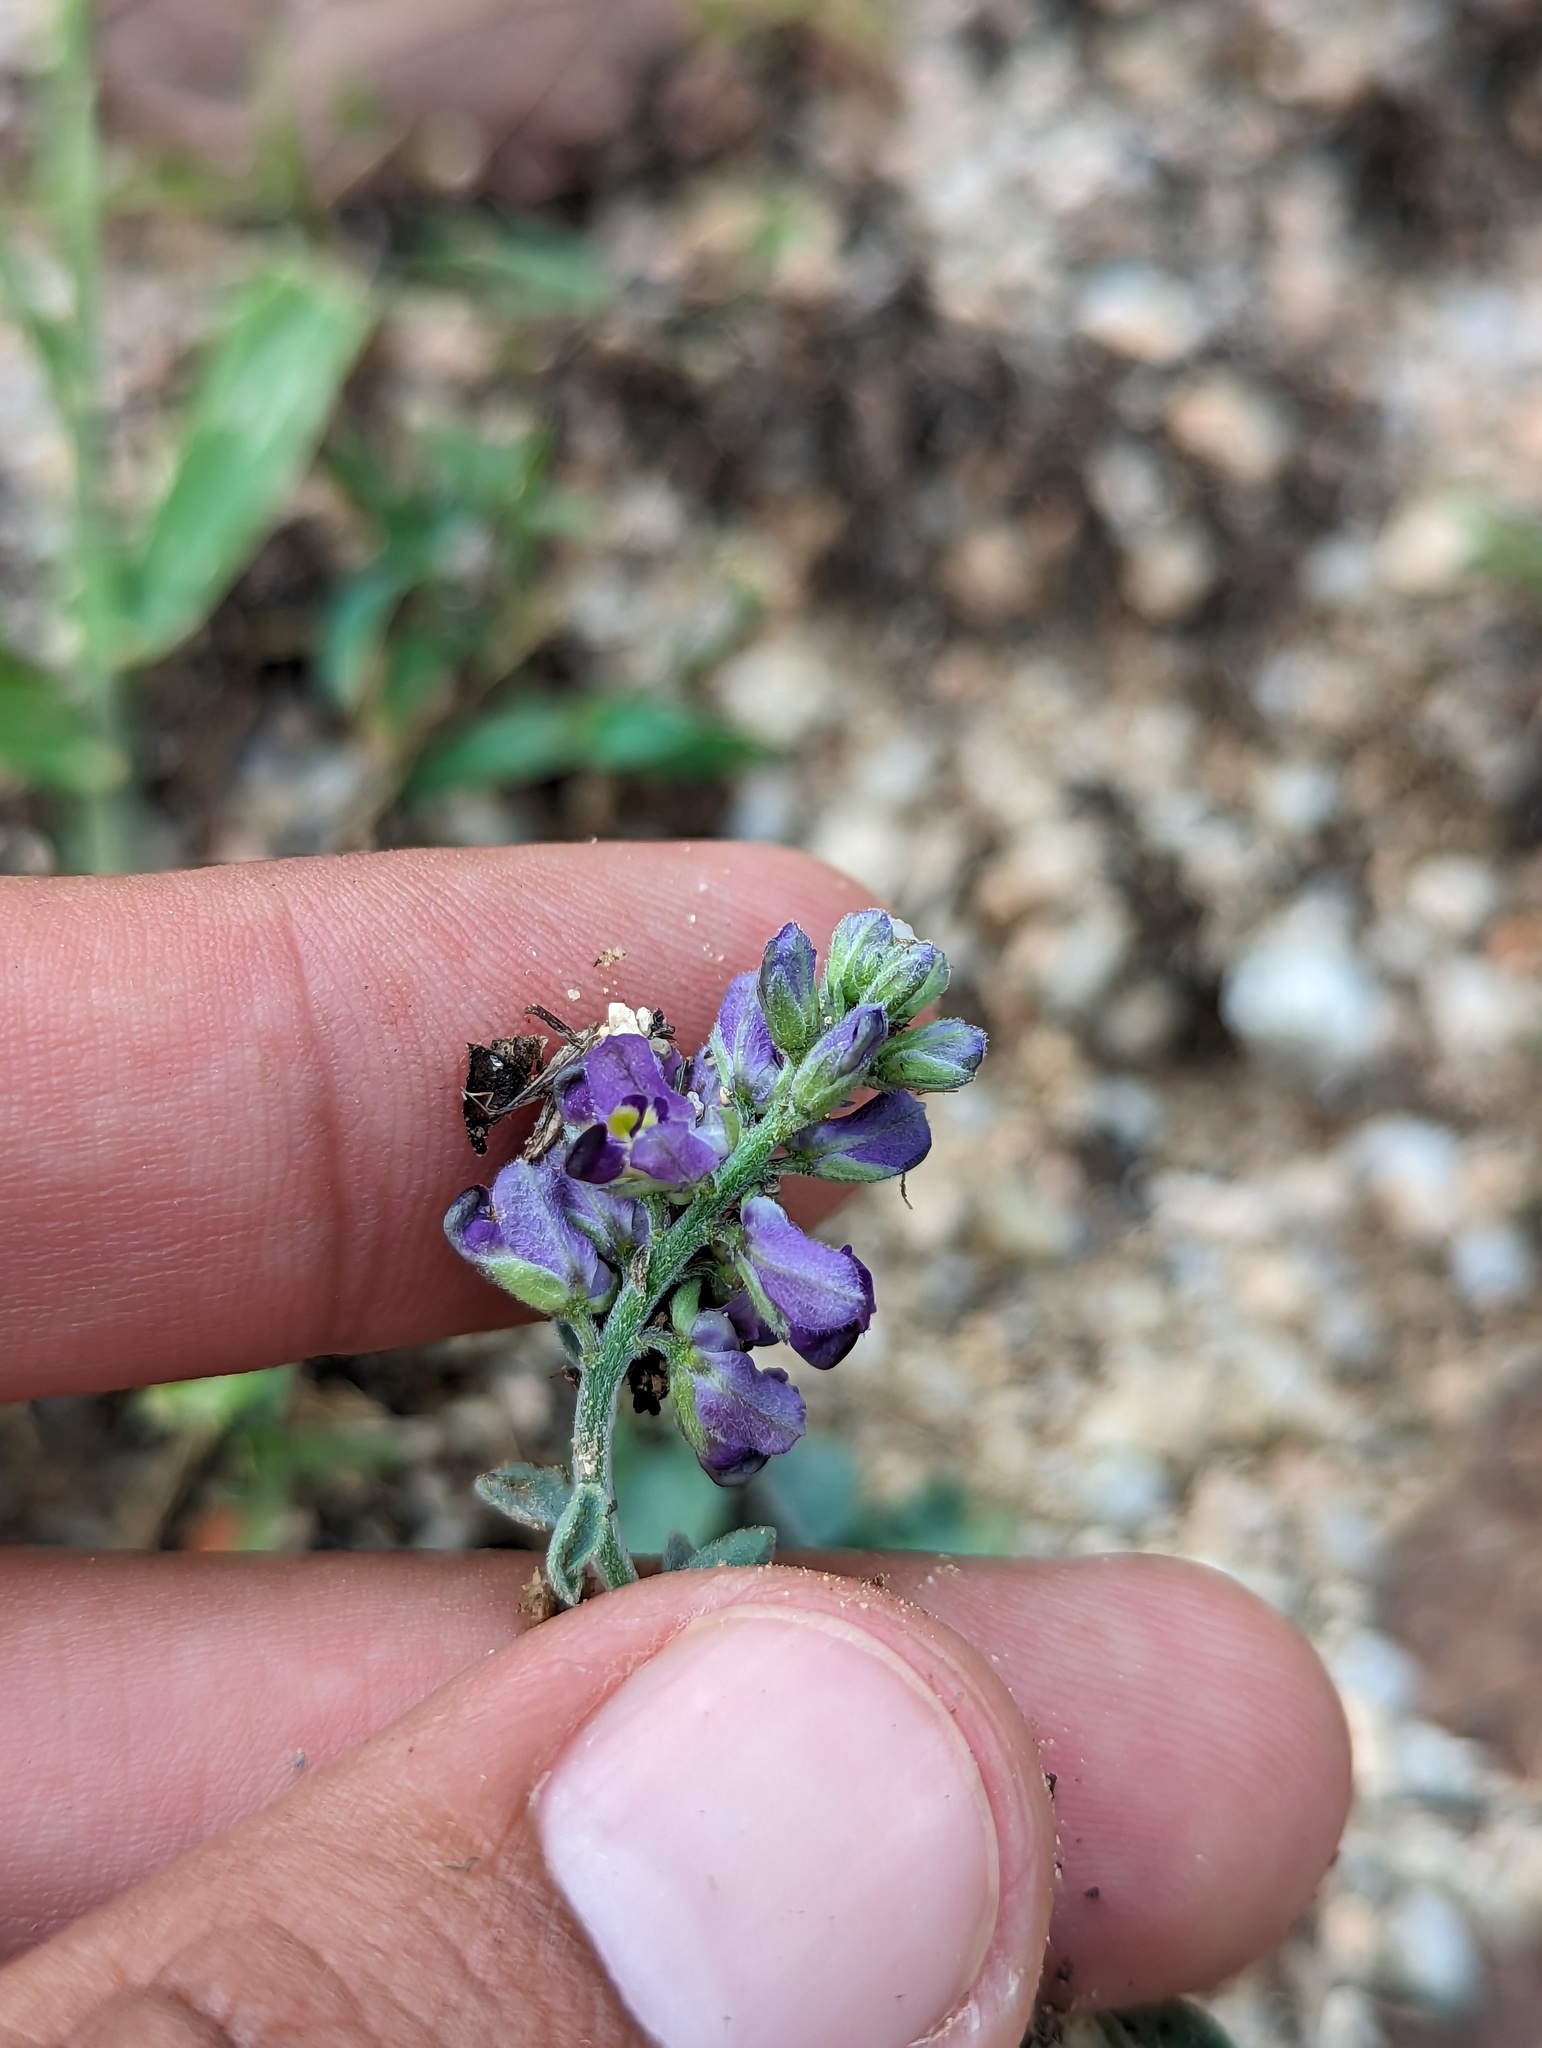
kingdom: Plantae
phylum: Tracheophyta
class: Magnoliopsida
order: Fabales
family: Polygalaceae
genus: Polygala
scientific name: Polygala xanti
